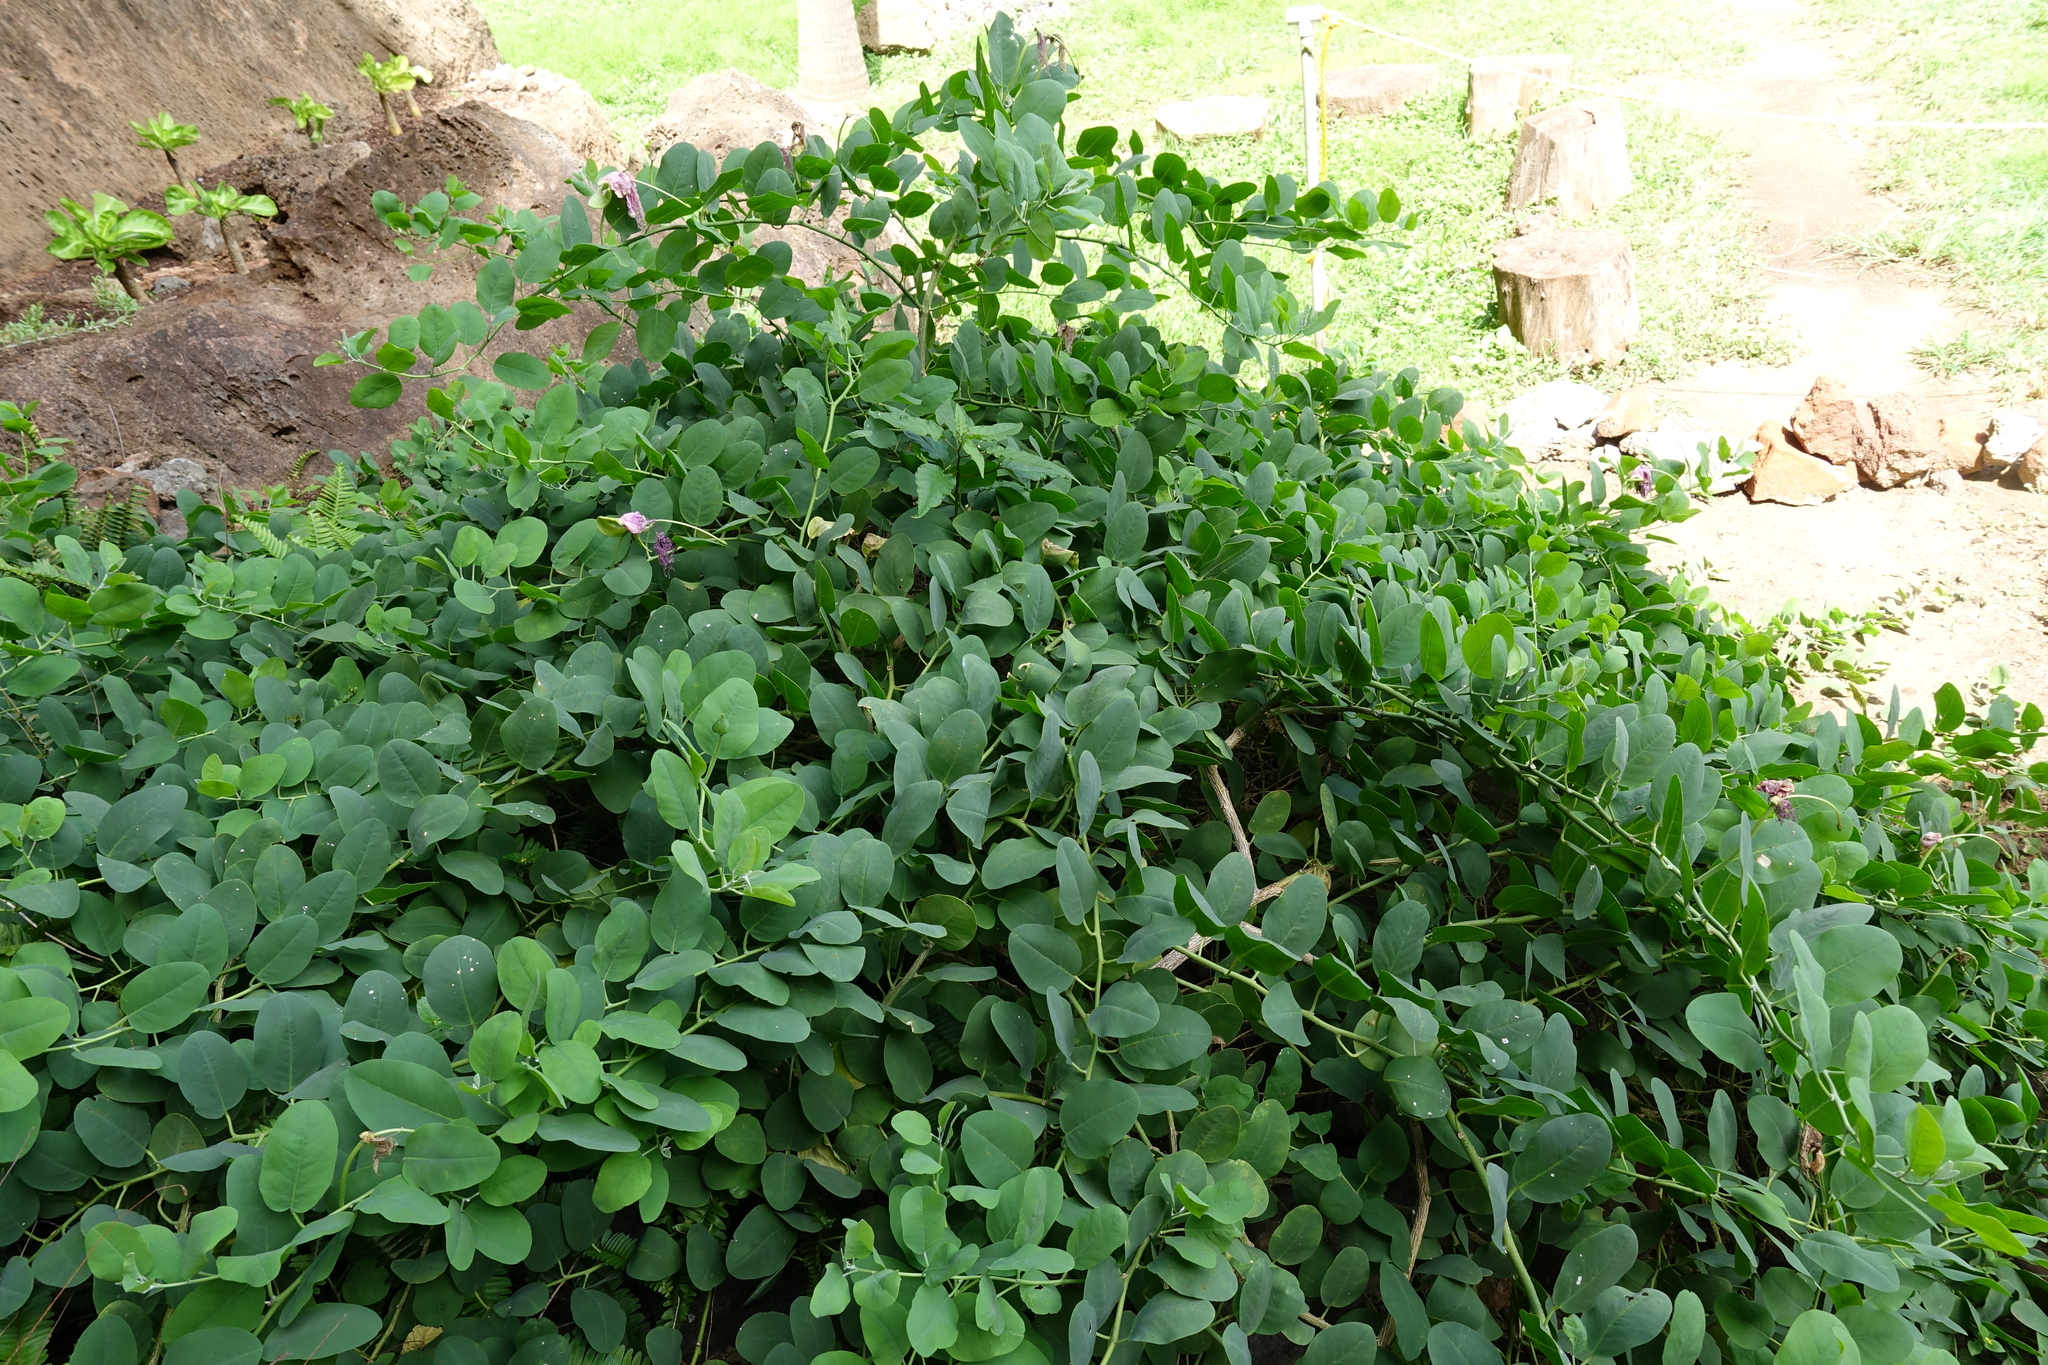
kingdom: Plantae
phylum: Tracheophyta
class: Magnoliopsida
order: Brassicales
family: Capparaceae
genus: Capparis
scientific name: Capparis spinosa
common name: Caper
